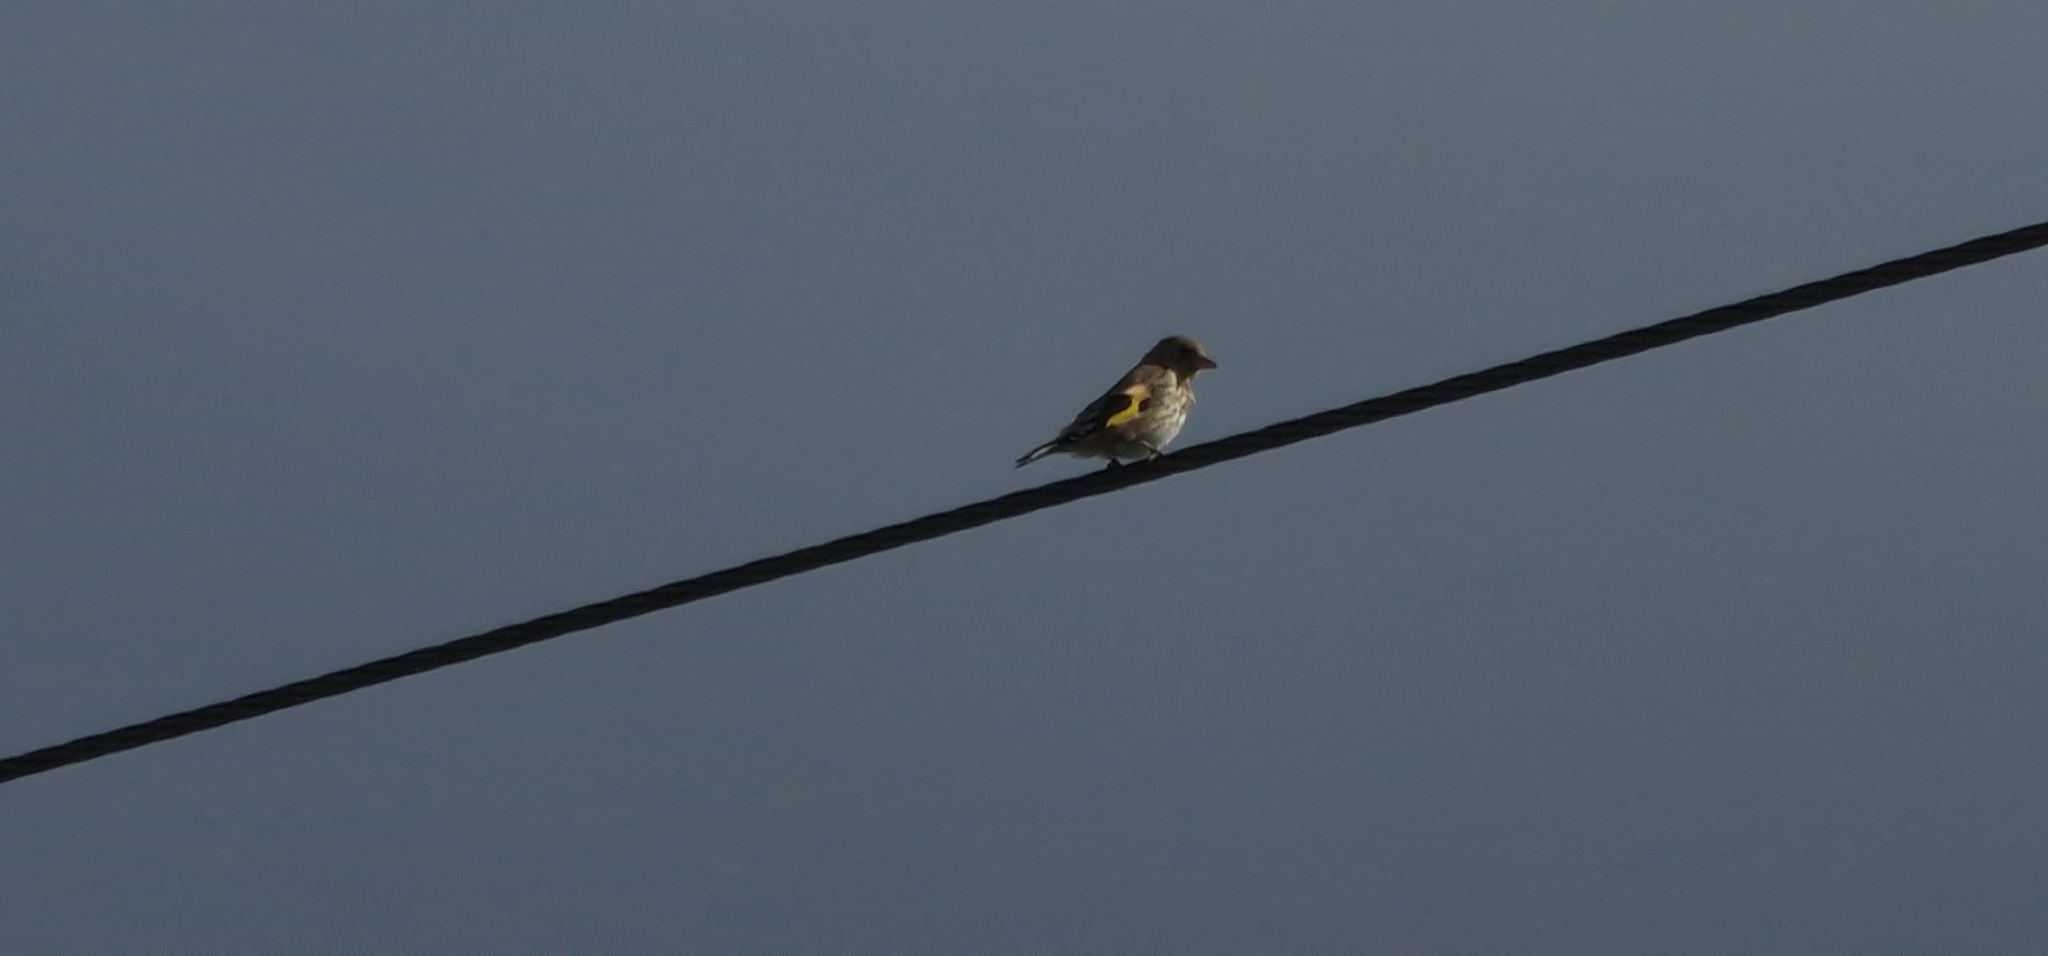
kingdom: Animalia
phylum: Chordata
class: Aves
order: Passeriformes
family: Fringillidae
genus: Carduelis
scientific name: Carduelis carduelis
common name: European goldfinch
